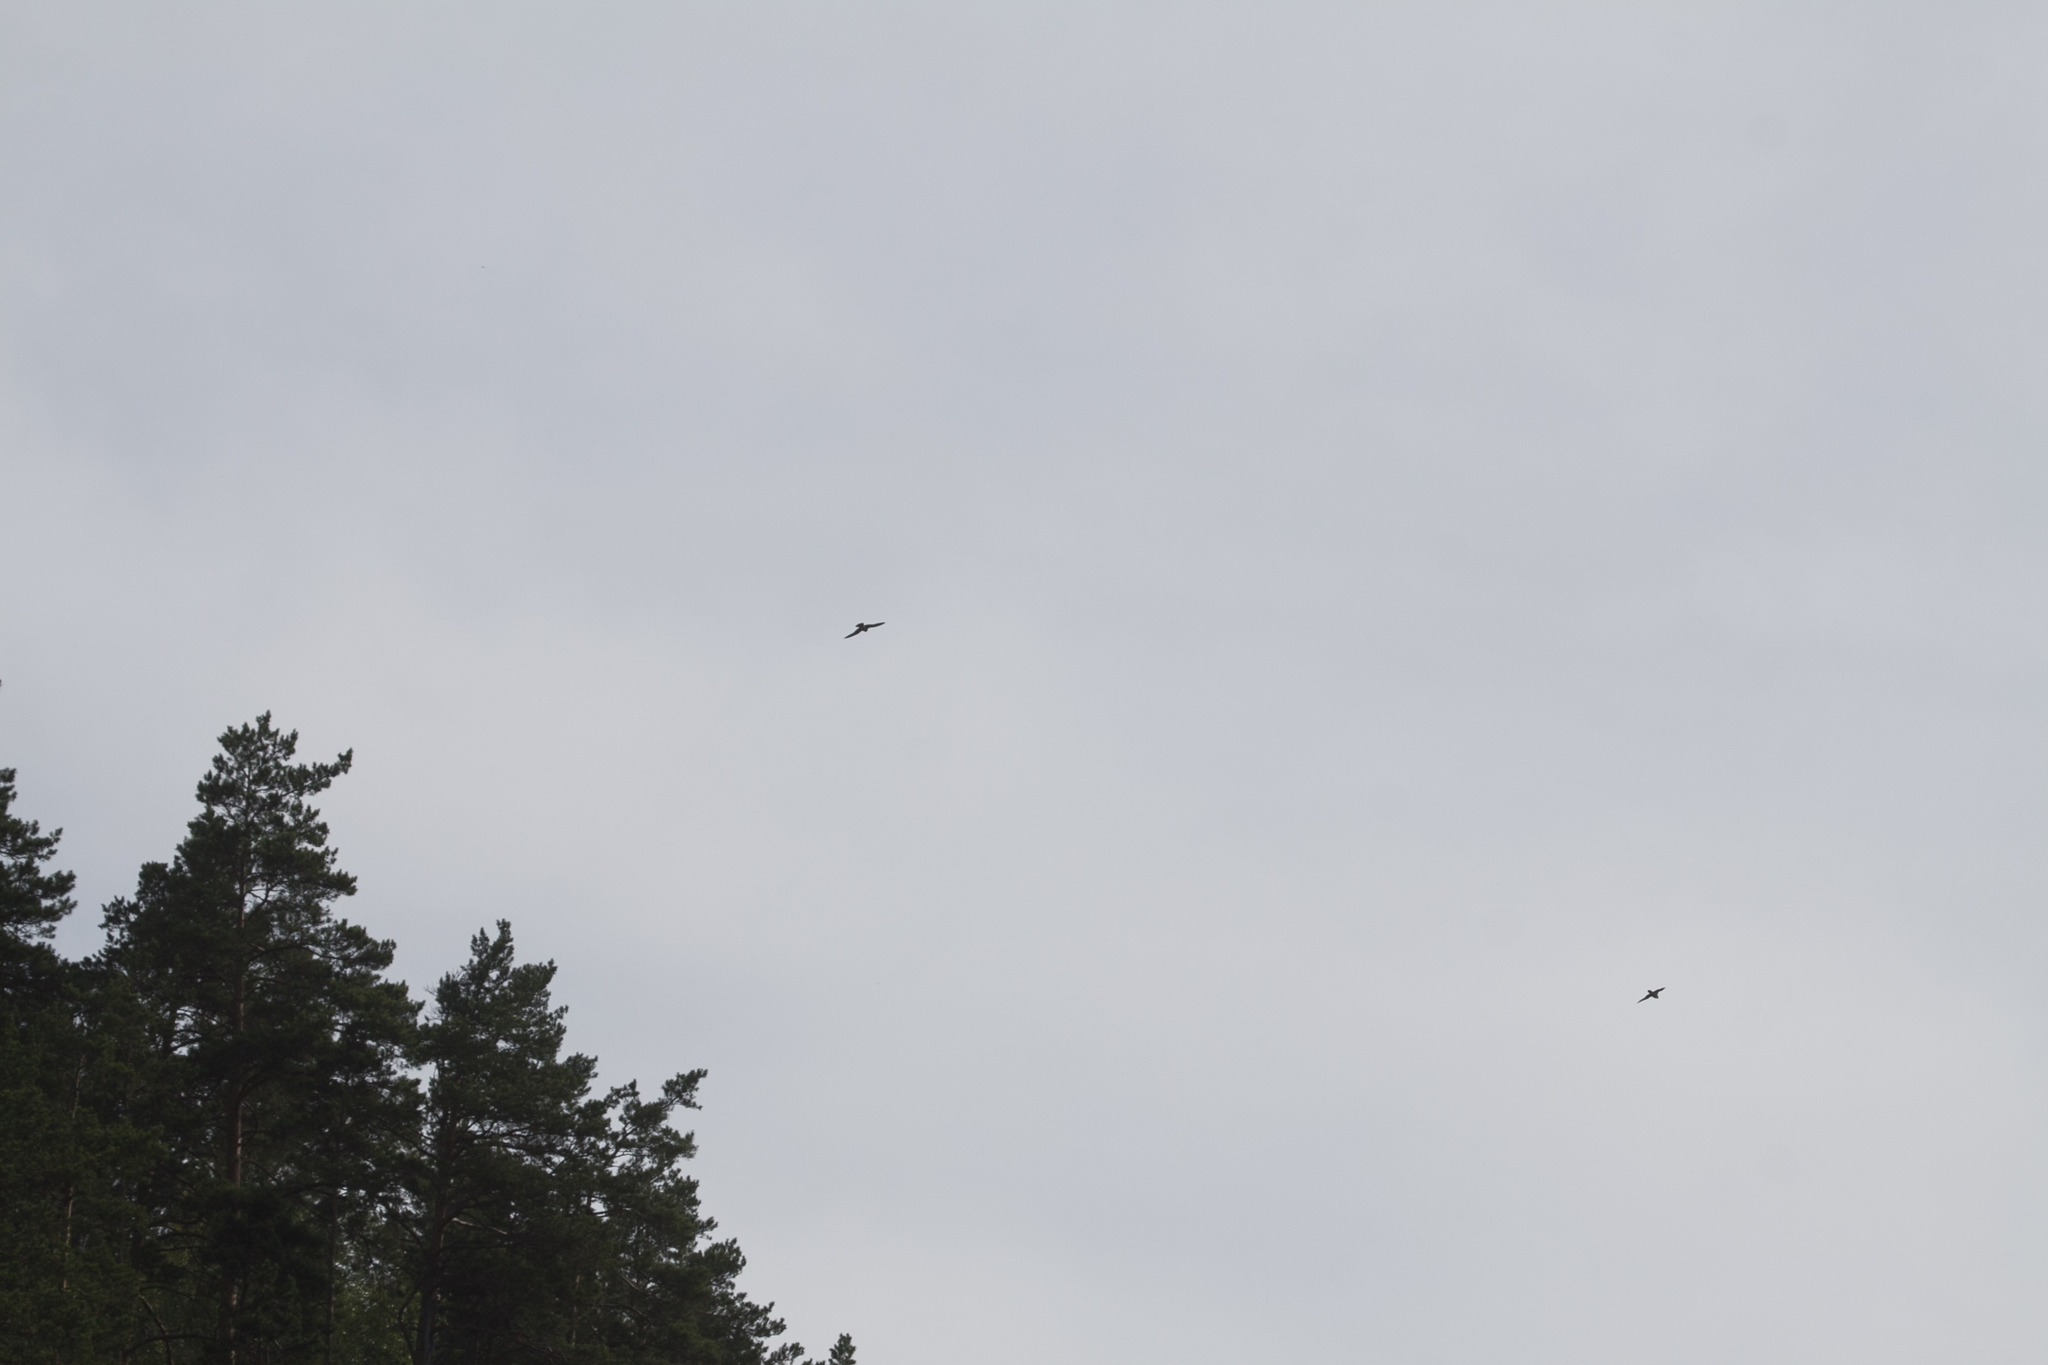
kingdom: Animalia
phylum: Chordata
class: Aves
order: Falconiformes
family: Falconidae
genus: Falco
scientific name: Falco peregrinus
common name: Peregrine falcon
